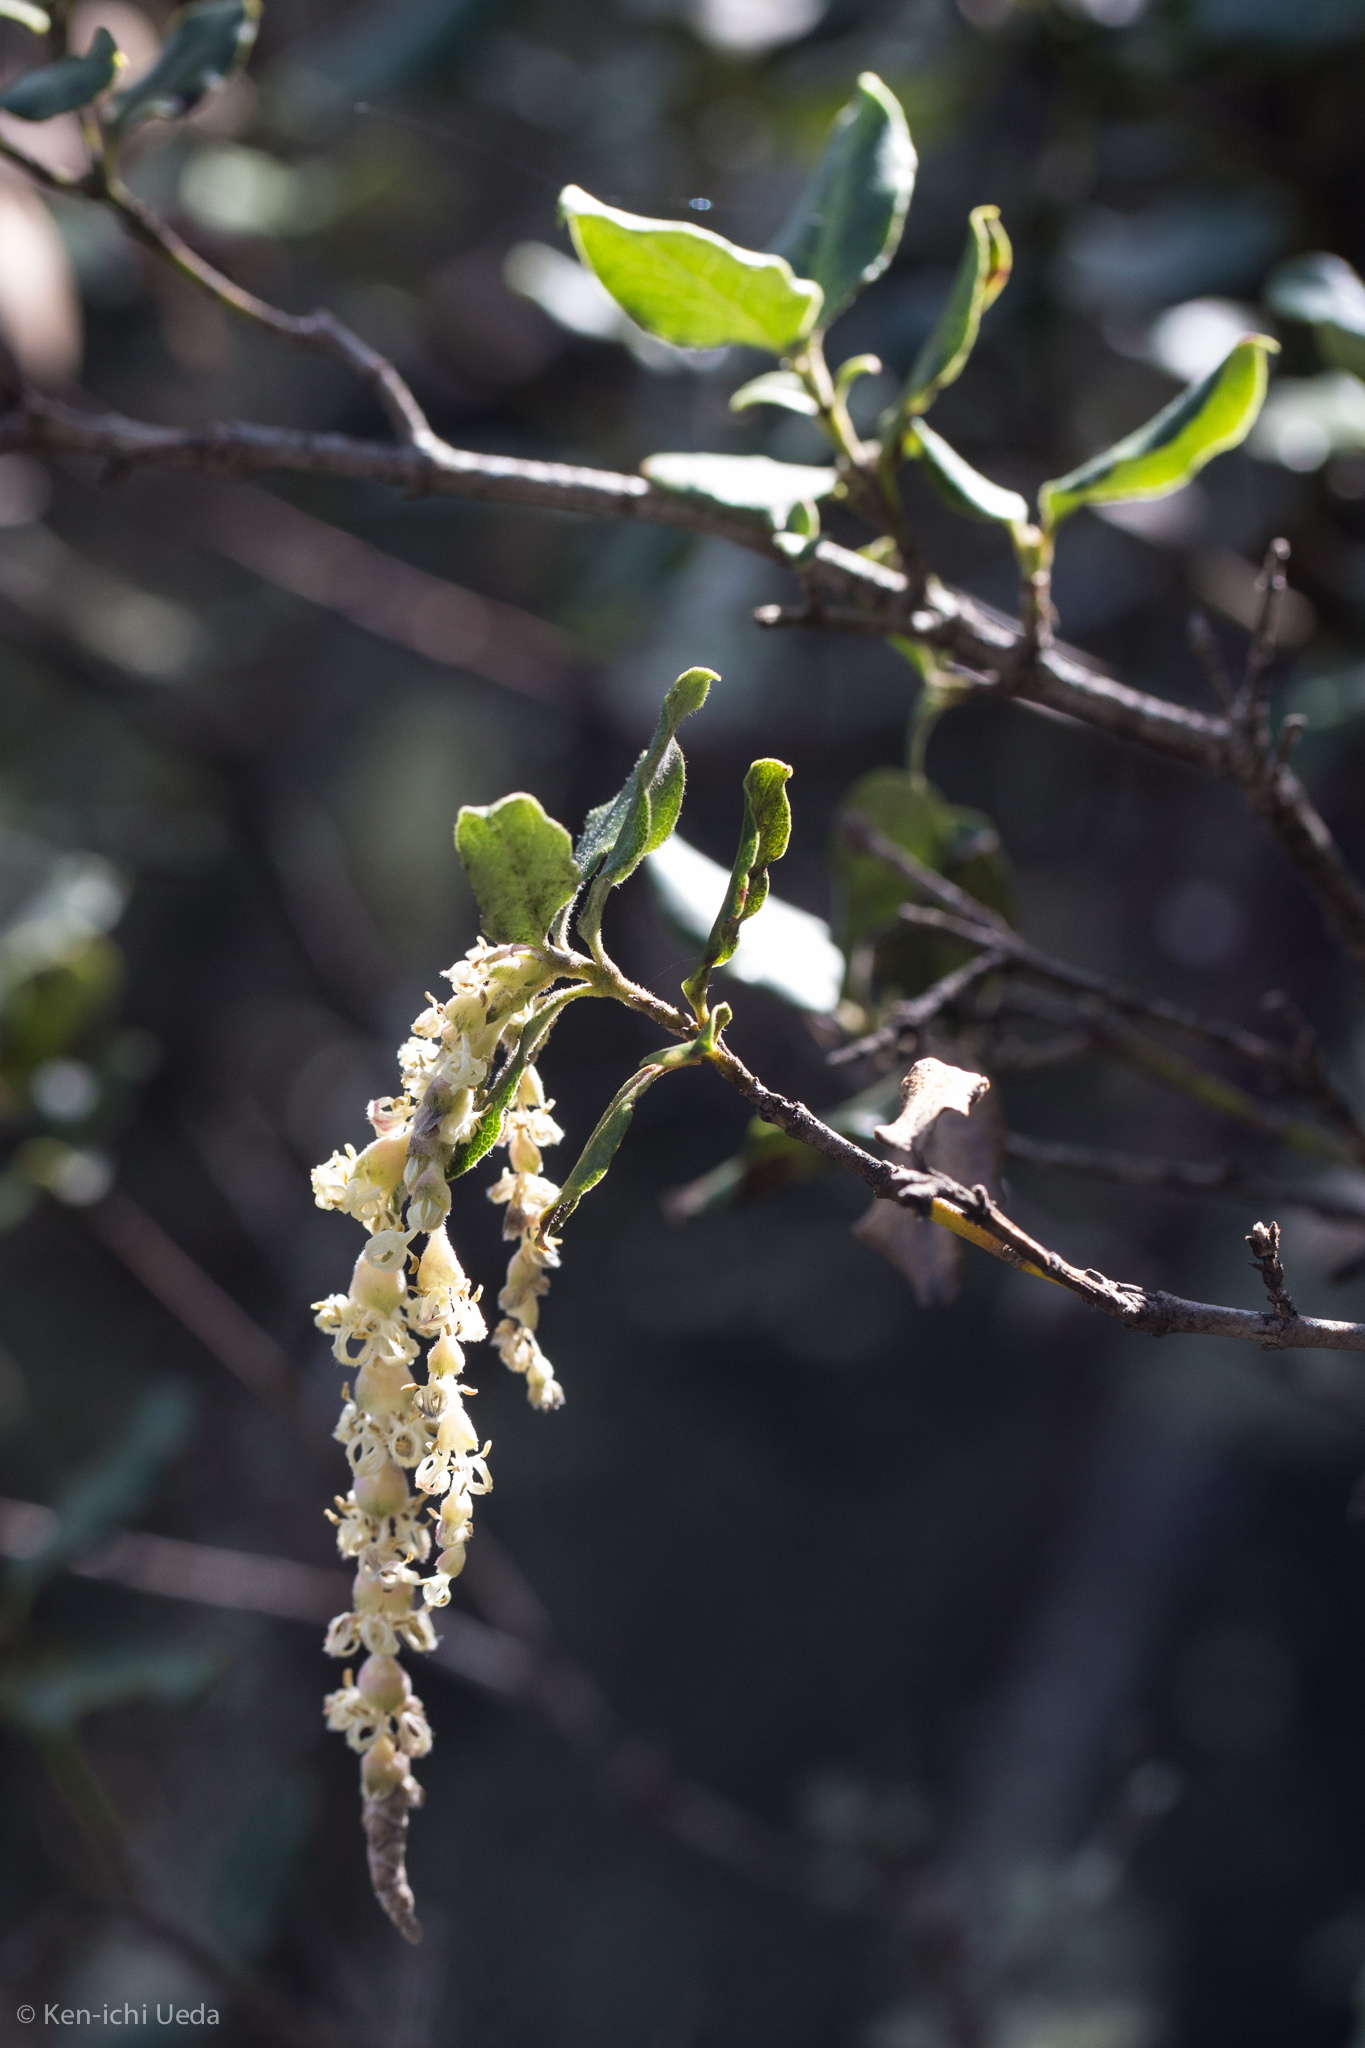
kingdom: Plantae
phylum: Tracheophyta
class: Magnoliopsida
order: Garryales
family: Garryaceae
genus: Garrya
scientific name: Garrya elliptica
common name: Silk-tassel
